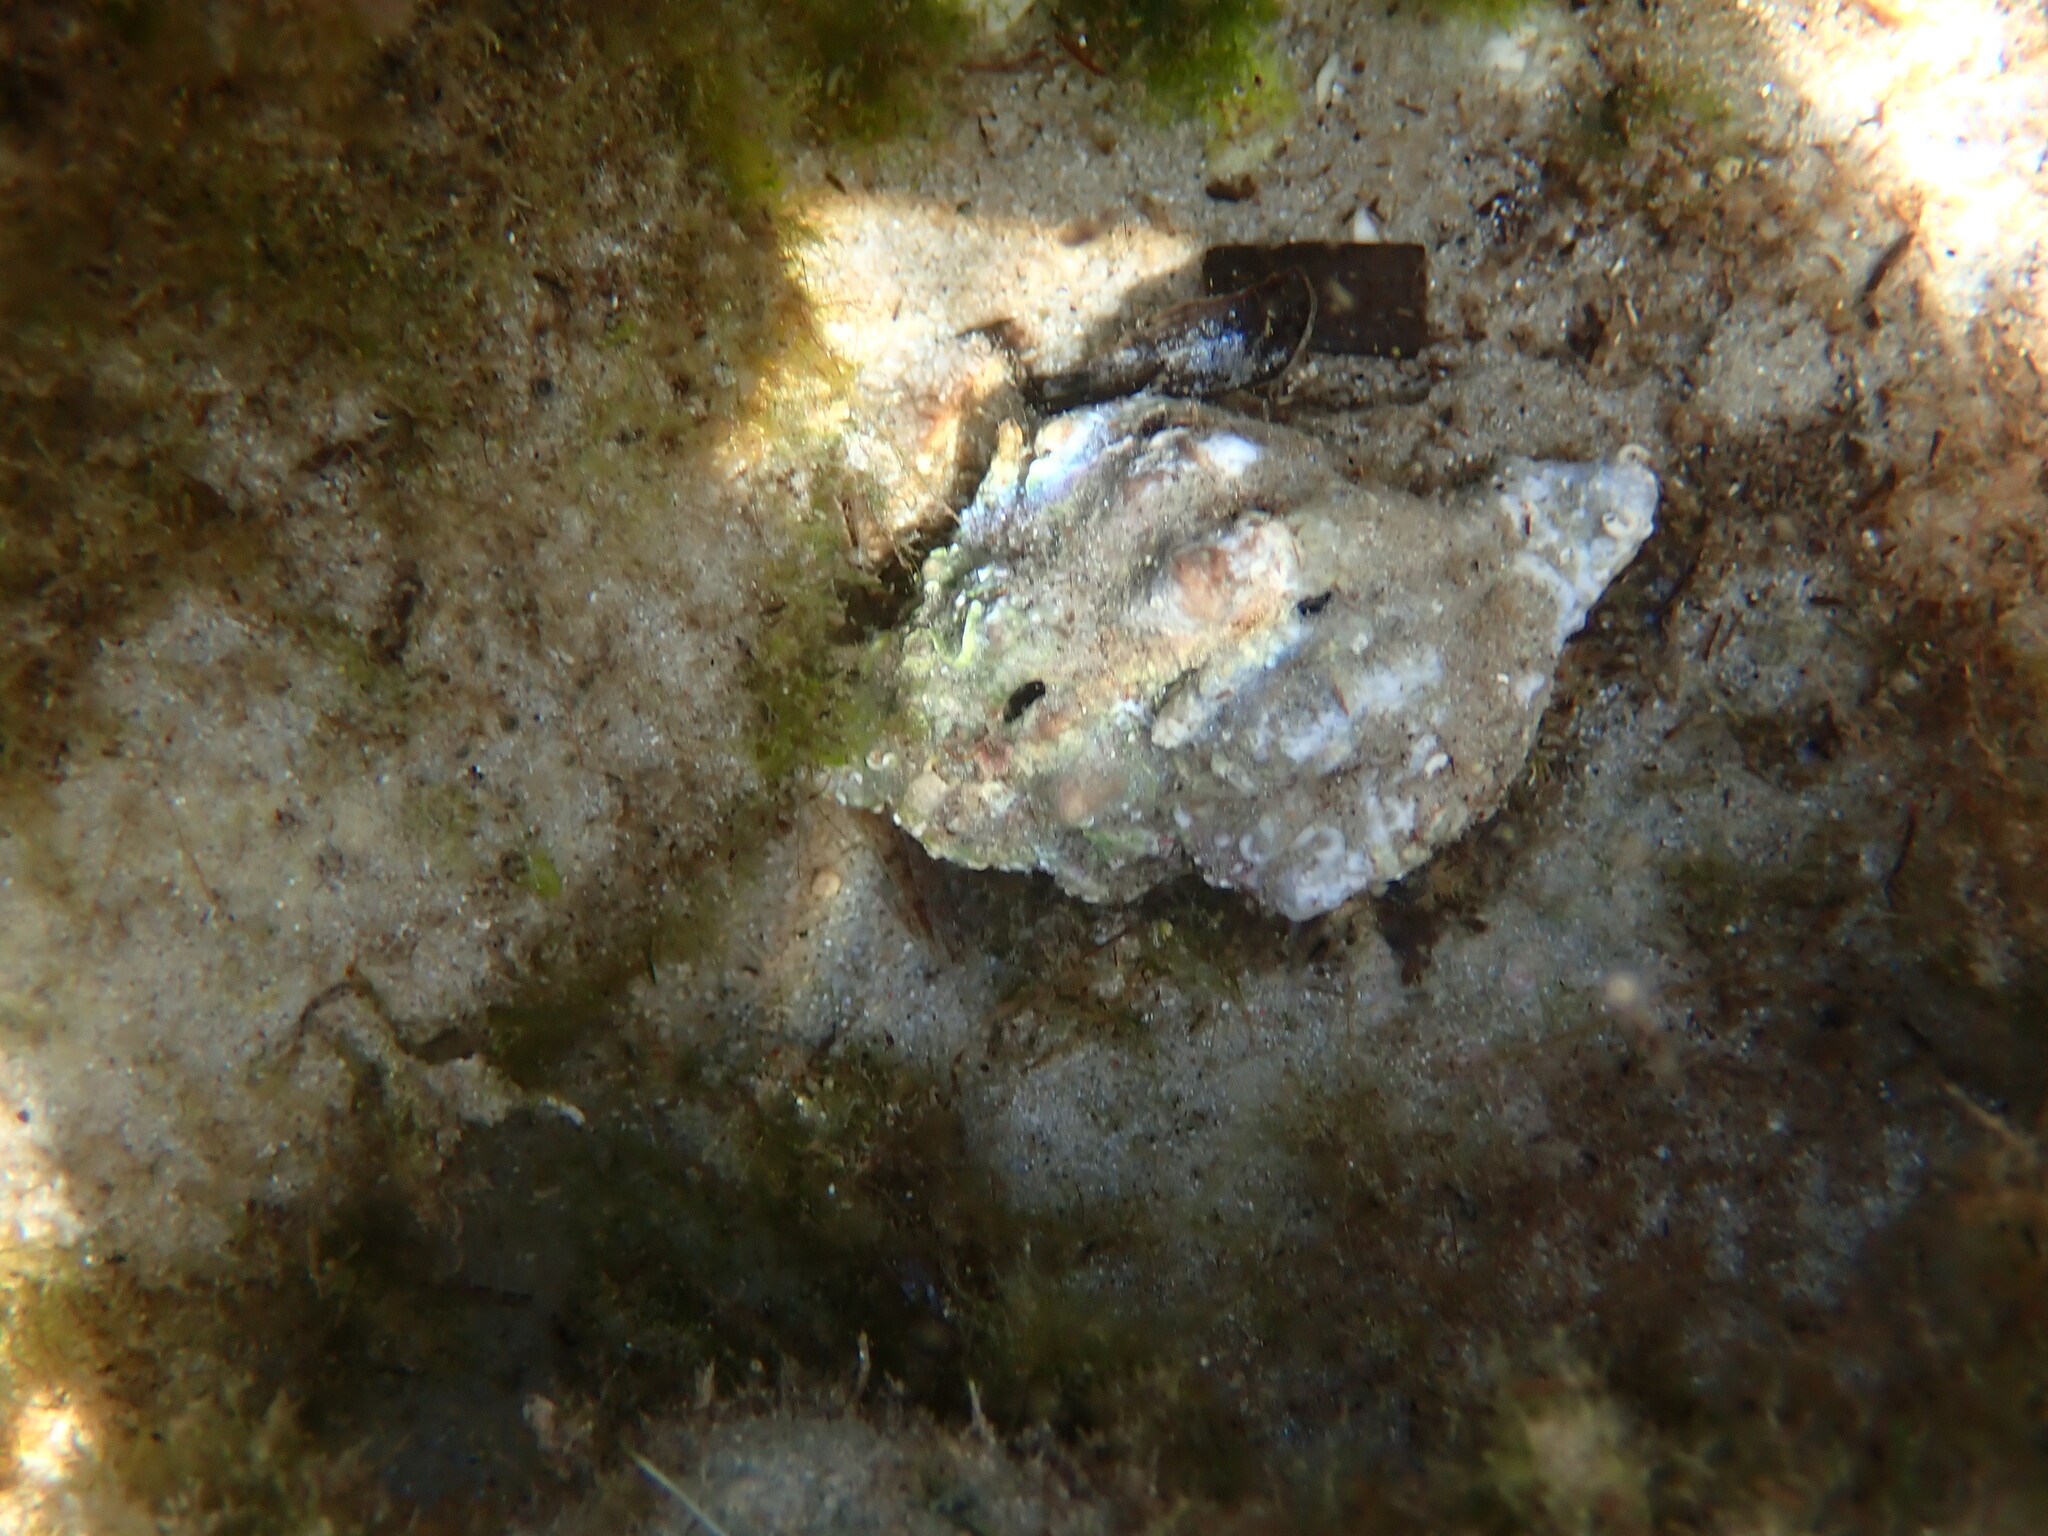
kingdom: Animalia
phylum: Mollusca
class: Gastropoda
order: Neogastropoda
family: Muricidae
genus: Hexaplex
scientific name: Hexaplex trunculus
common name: Banded dye-murex
